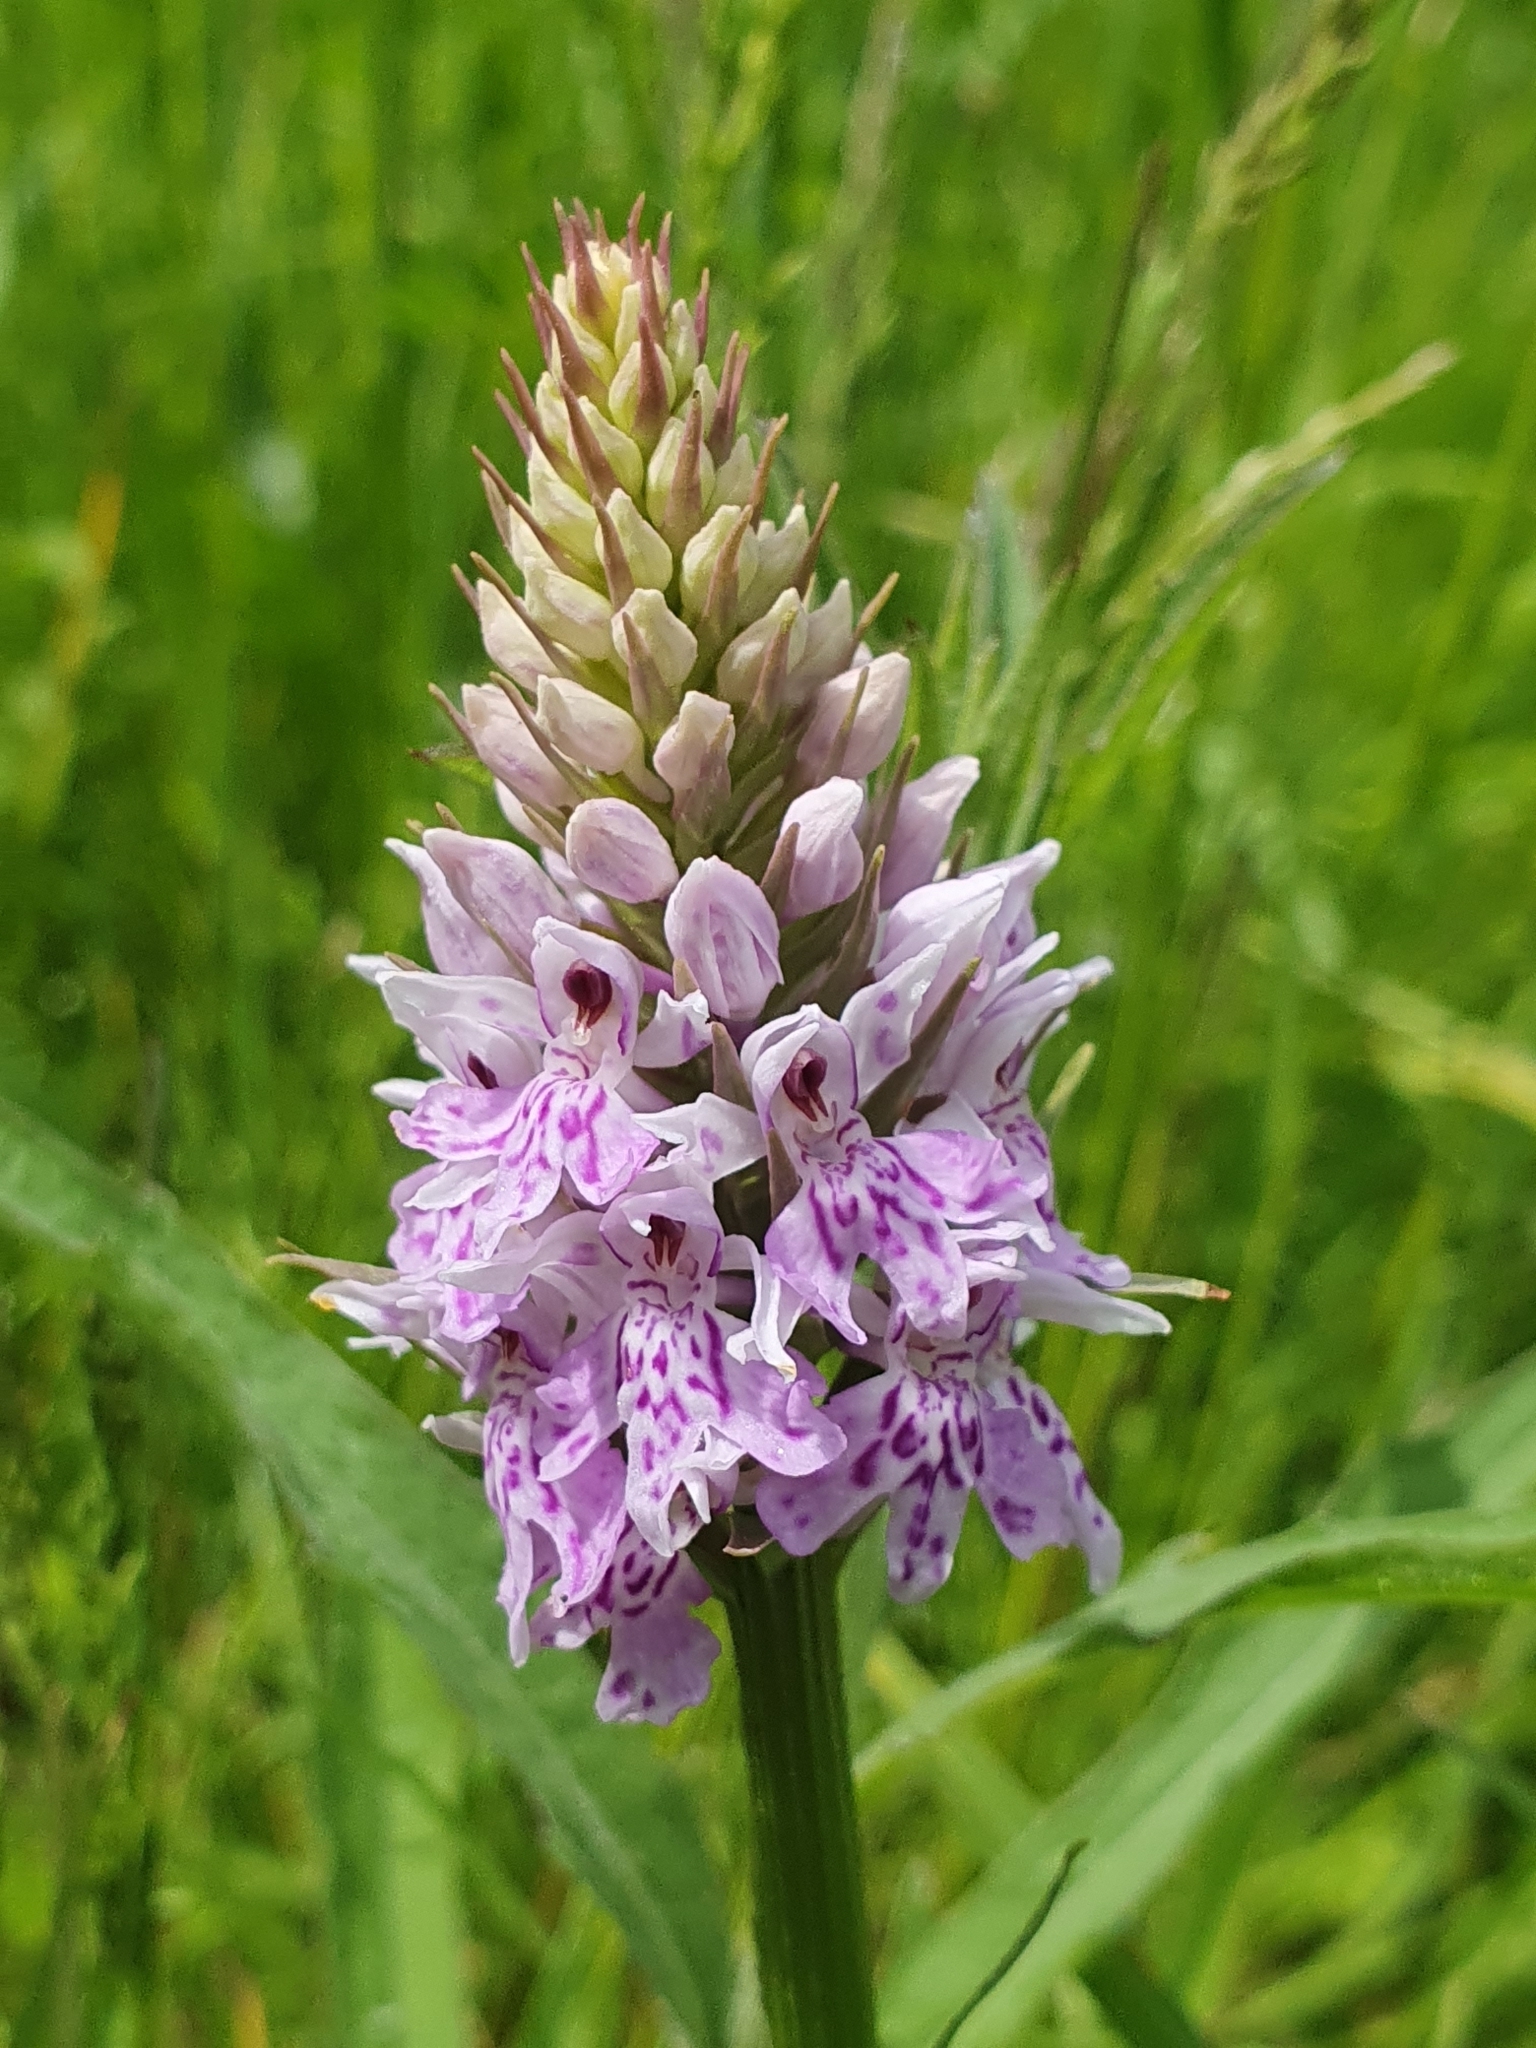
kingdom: Plantae
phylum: Tracheophyta
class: Liliopsida
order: Asparagales
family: Orchidaceae
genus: Dactylorhiza
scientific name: Dactylorhiza maculata
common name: Heath spotted-orchid
